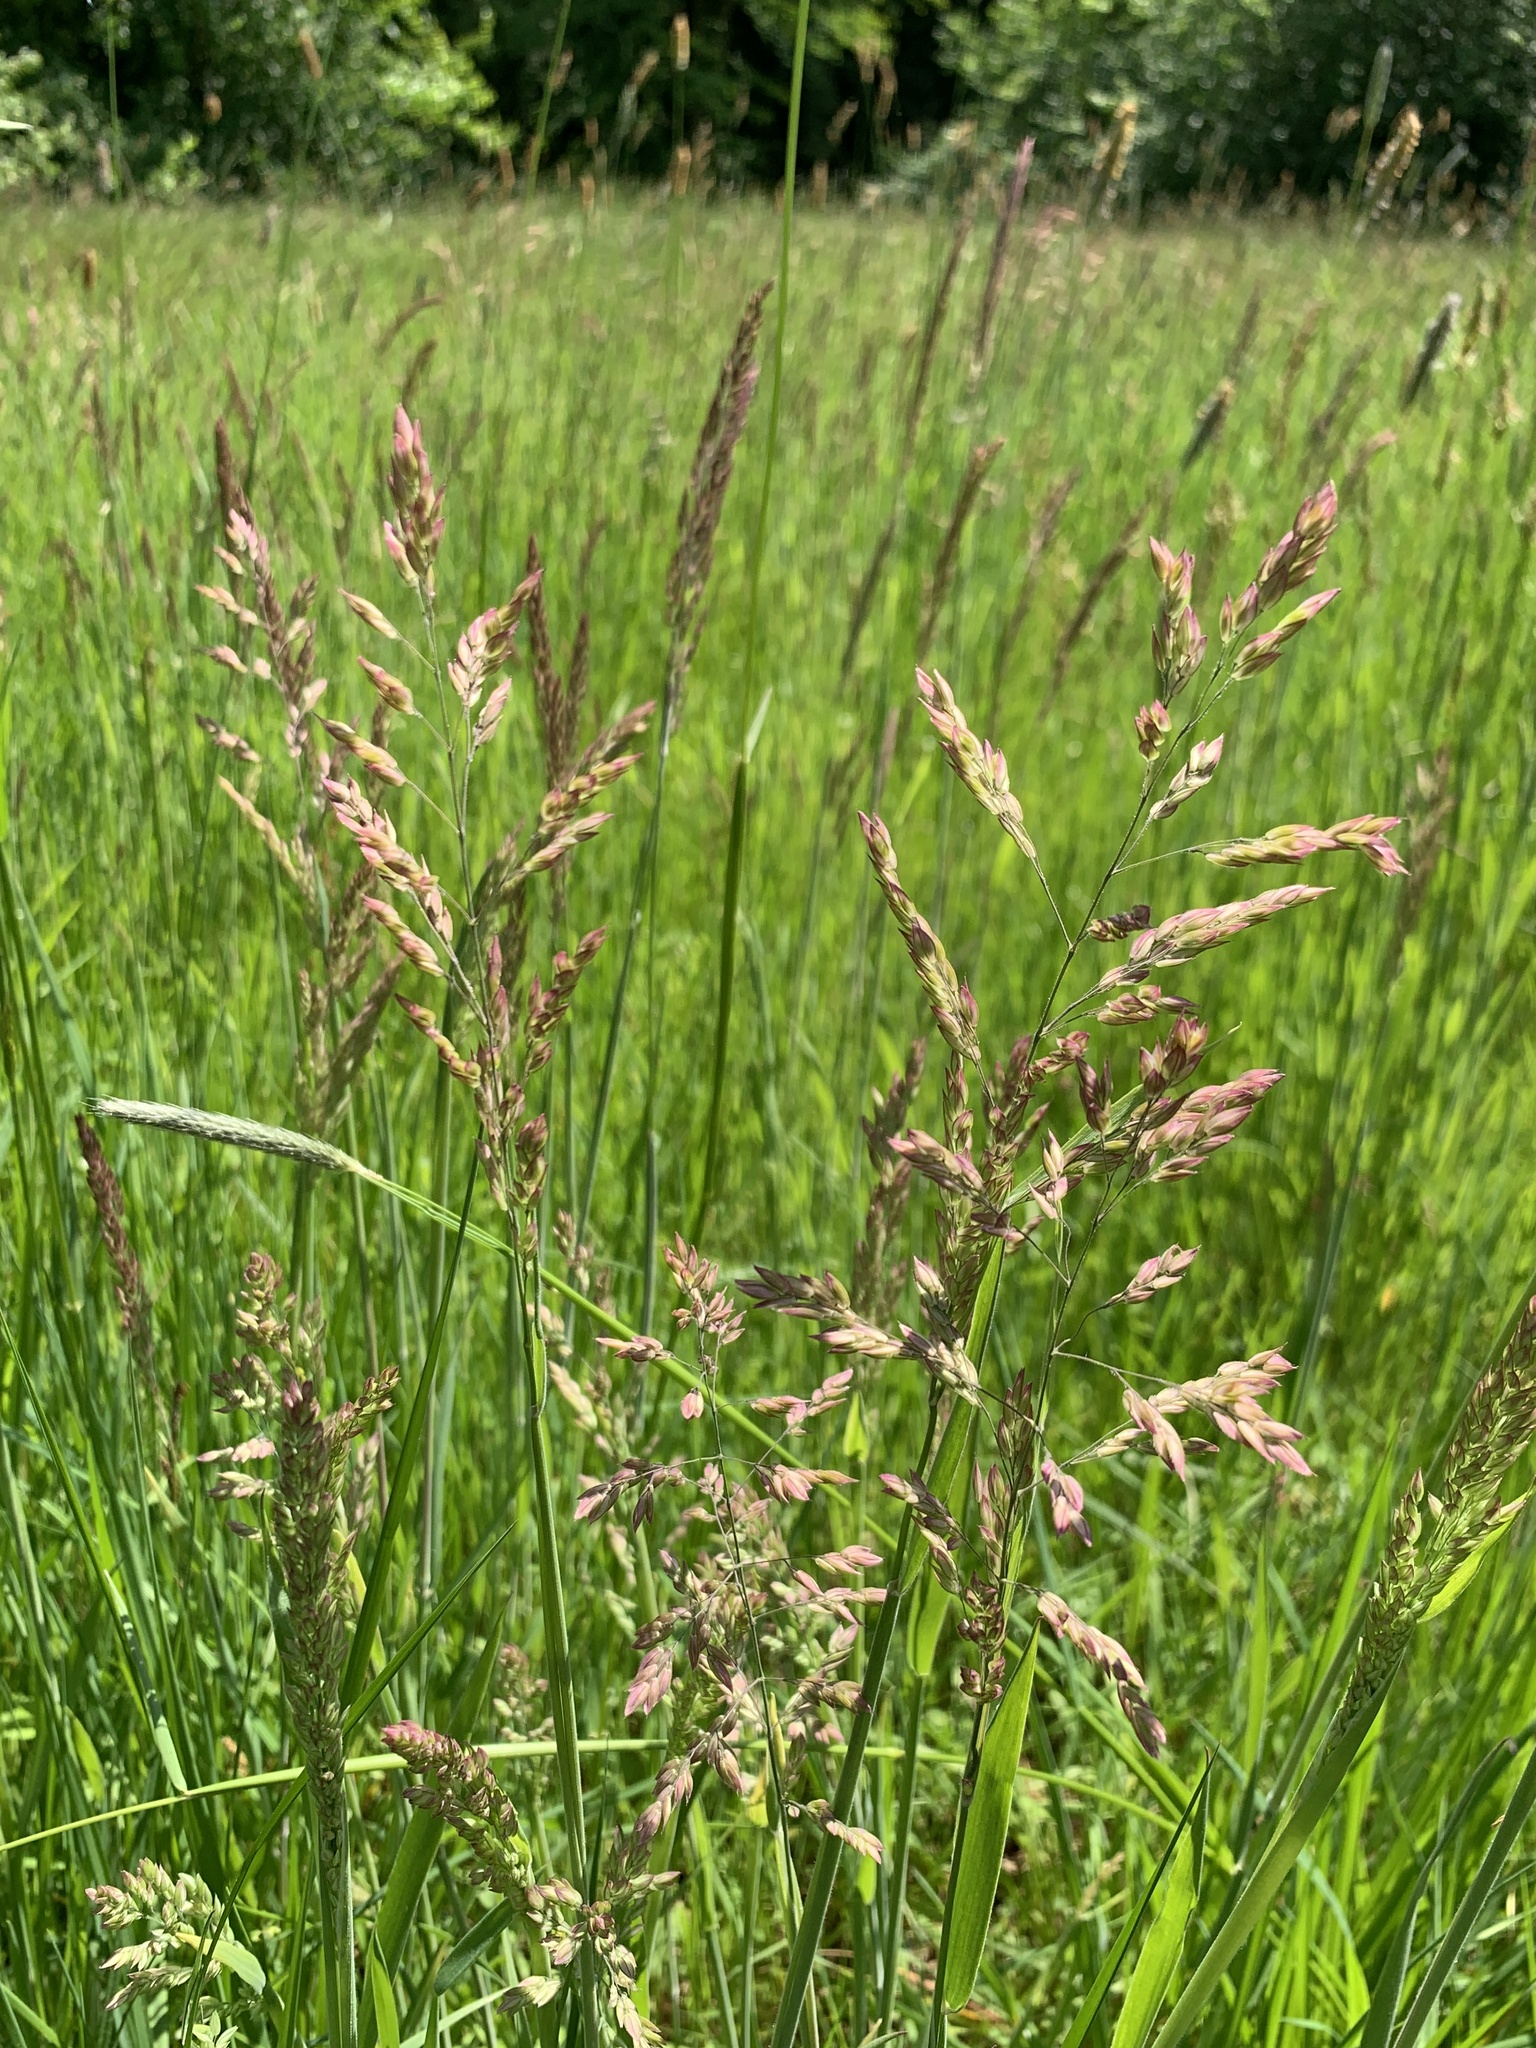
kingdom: Plantae
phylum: Tracheophyta
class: Liliopsida
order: Poales
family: Poaceae
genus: Holcus
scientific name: Holcus lanatus
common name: Yorkshire-fog
